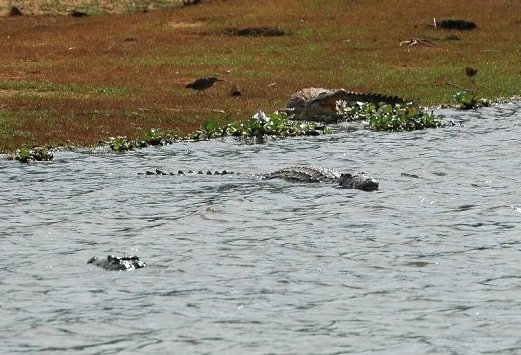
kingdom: Animalia
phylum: Chordata
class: Crocodylia
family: Crocodylidae
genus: Crocodylus
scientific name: Crocodylus niloticus
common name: Nile crocodile
